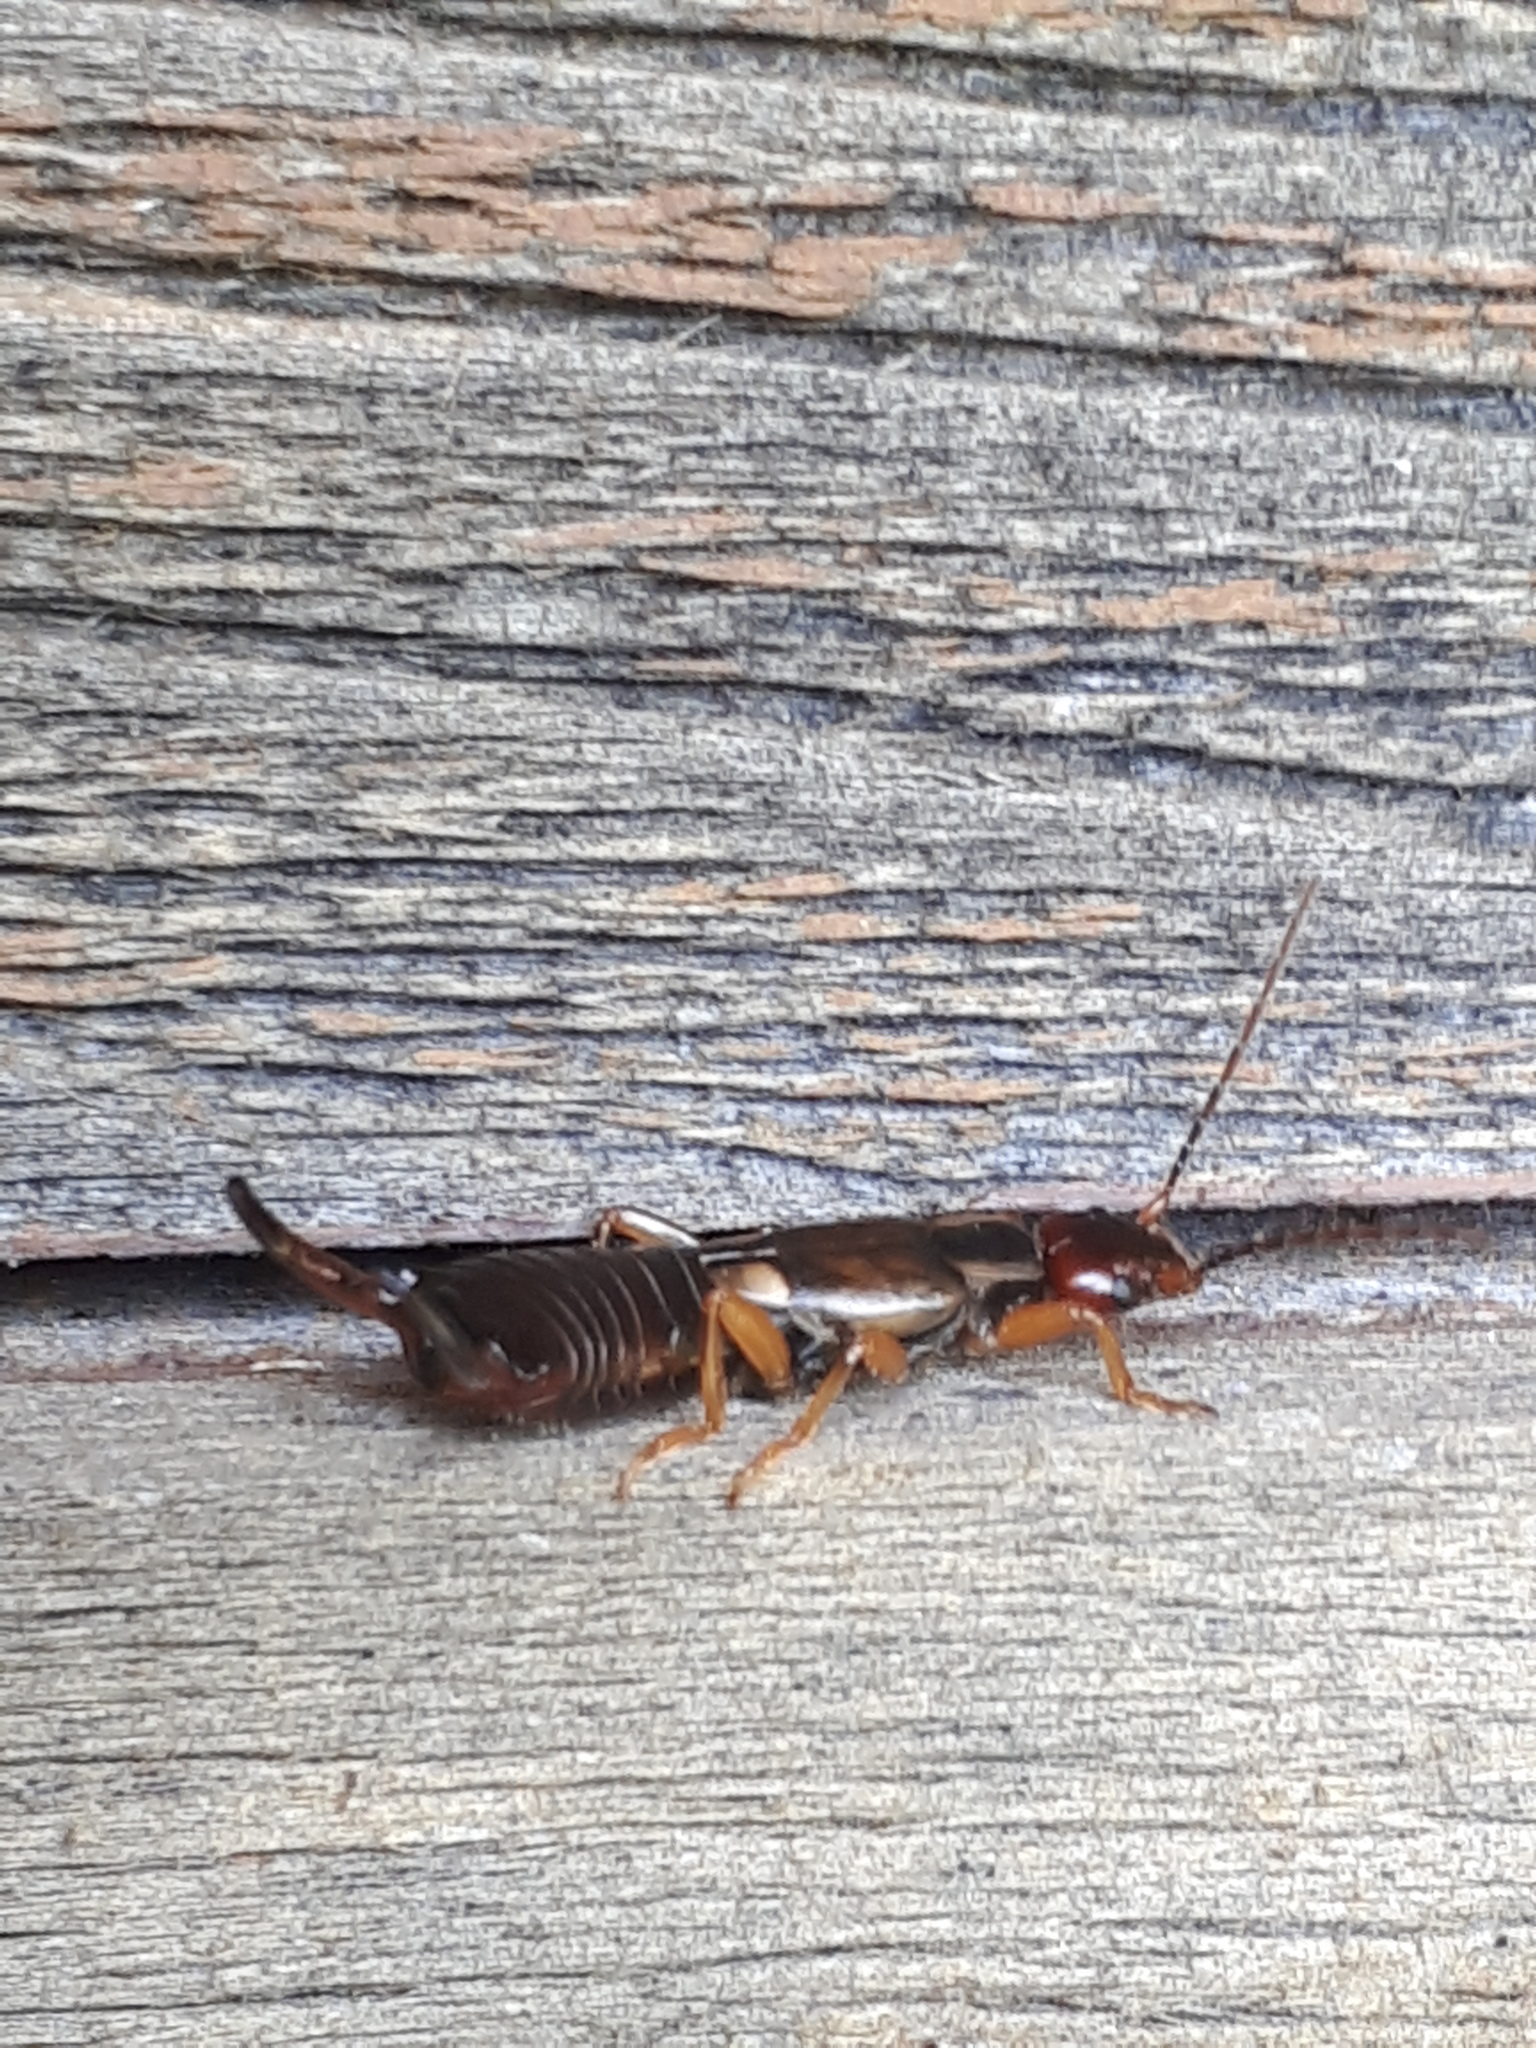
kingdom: Animalia
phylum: Arthropoda
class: Insecta
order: Dermaptera
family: Forficulidae
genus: Forficula
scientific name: Forficula
